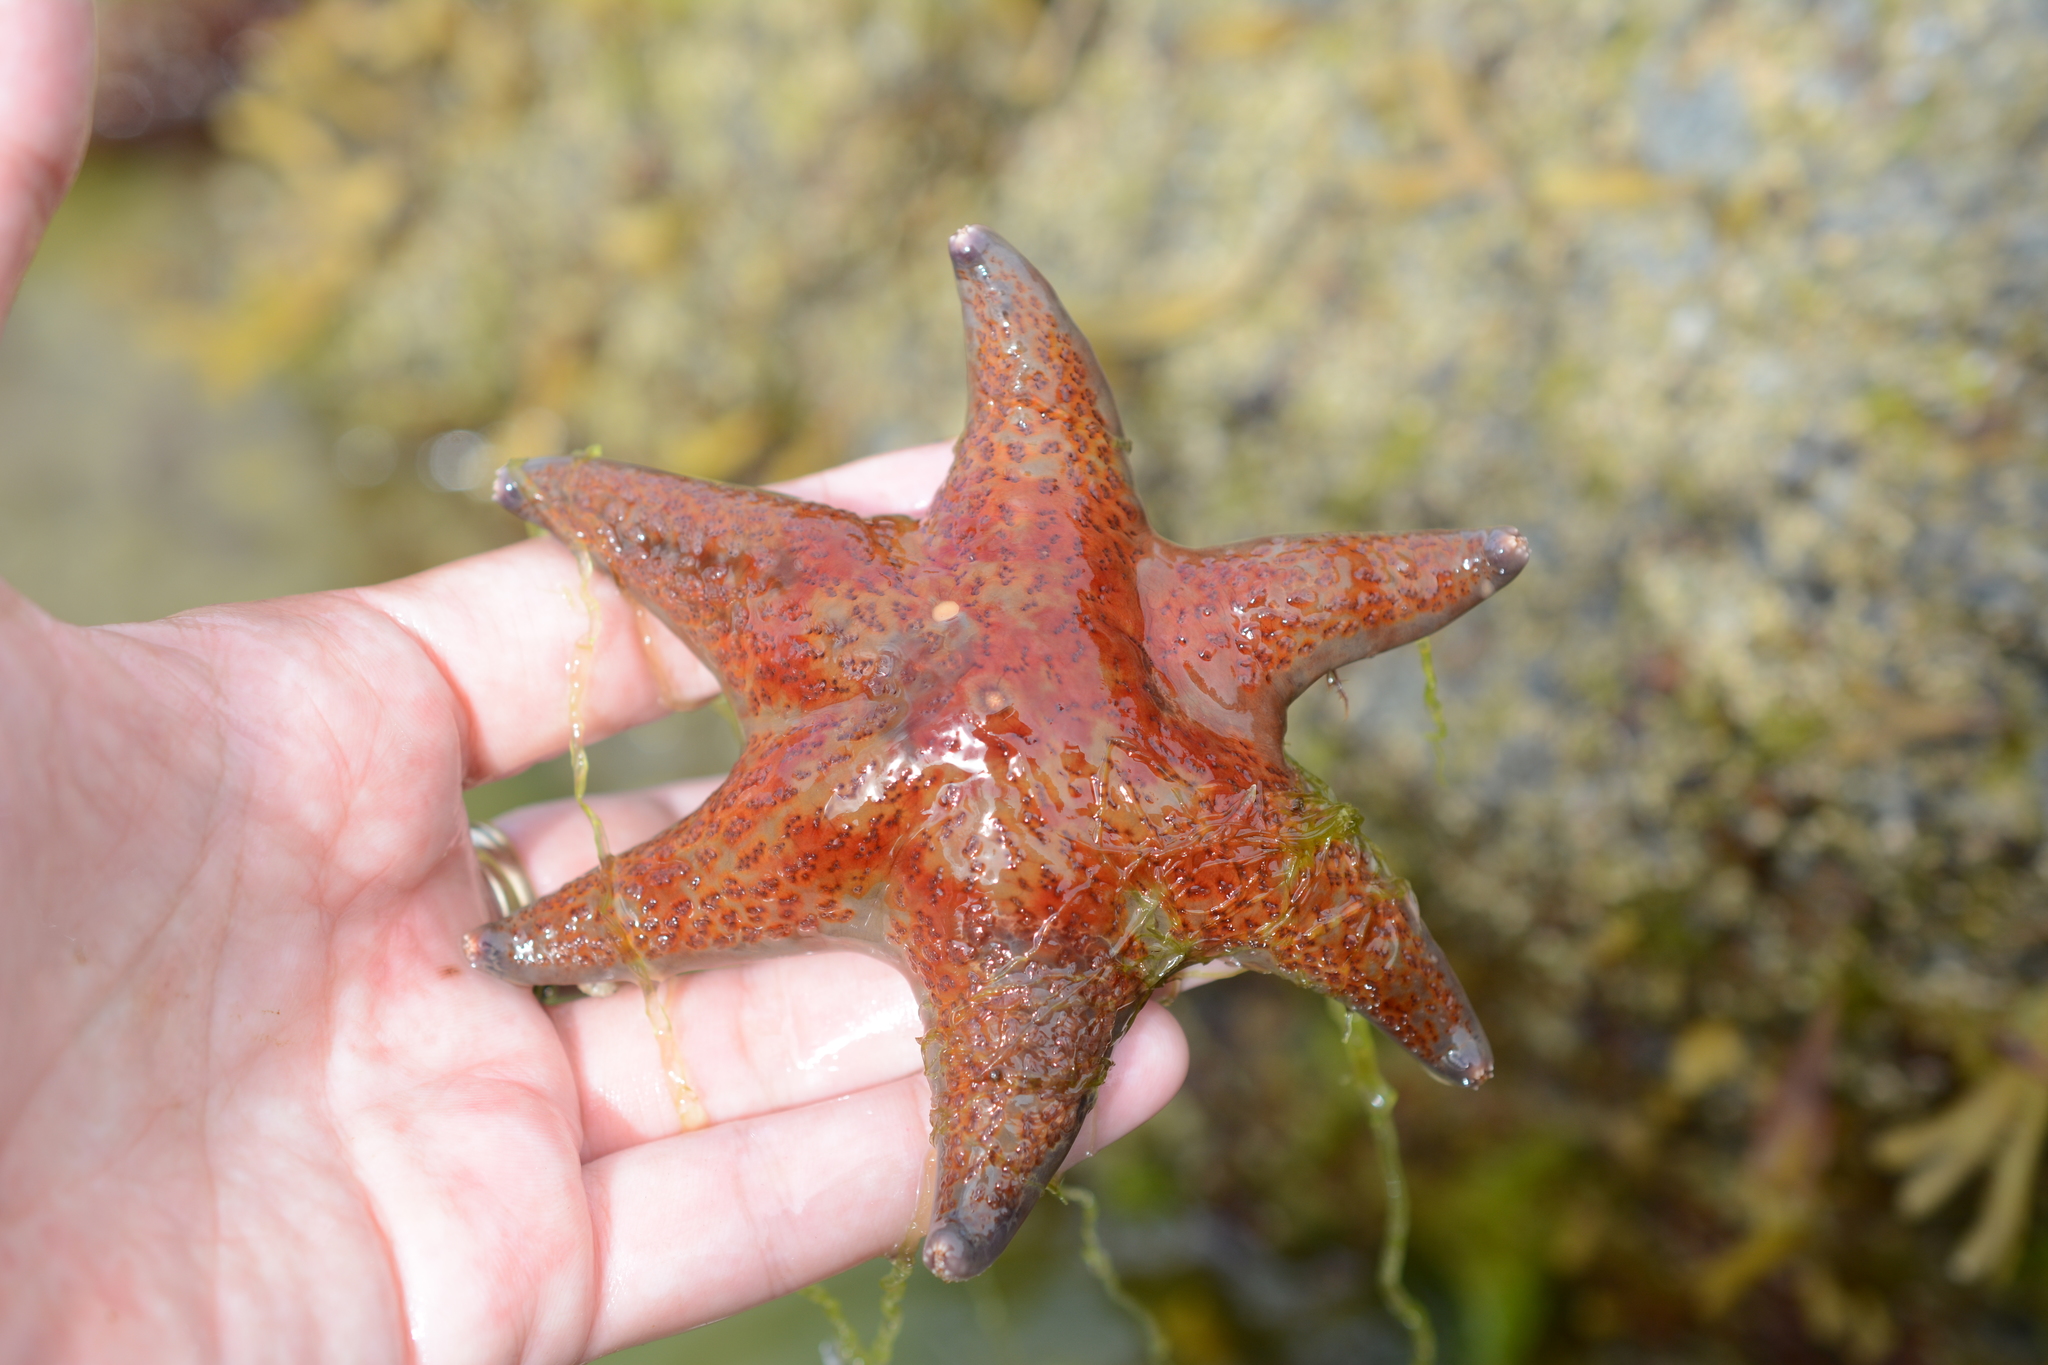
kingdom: Animalia
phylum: Echinodermata
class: Asteroidea
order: Valvatida
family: Asteropseidae
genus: Dermasterias
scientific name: Dermasterias imbricata
